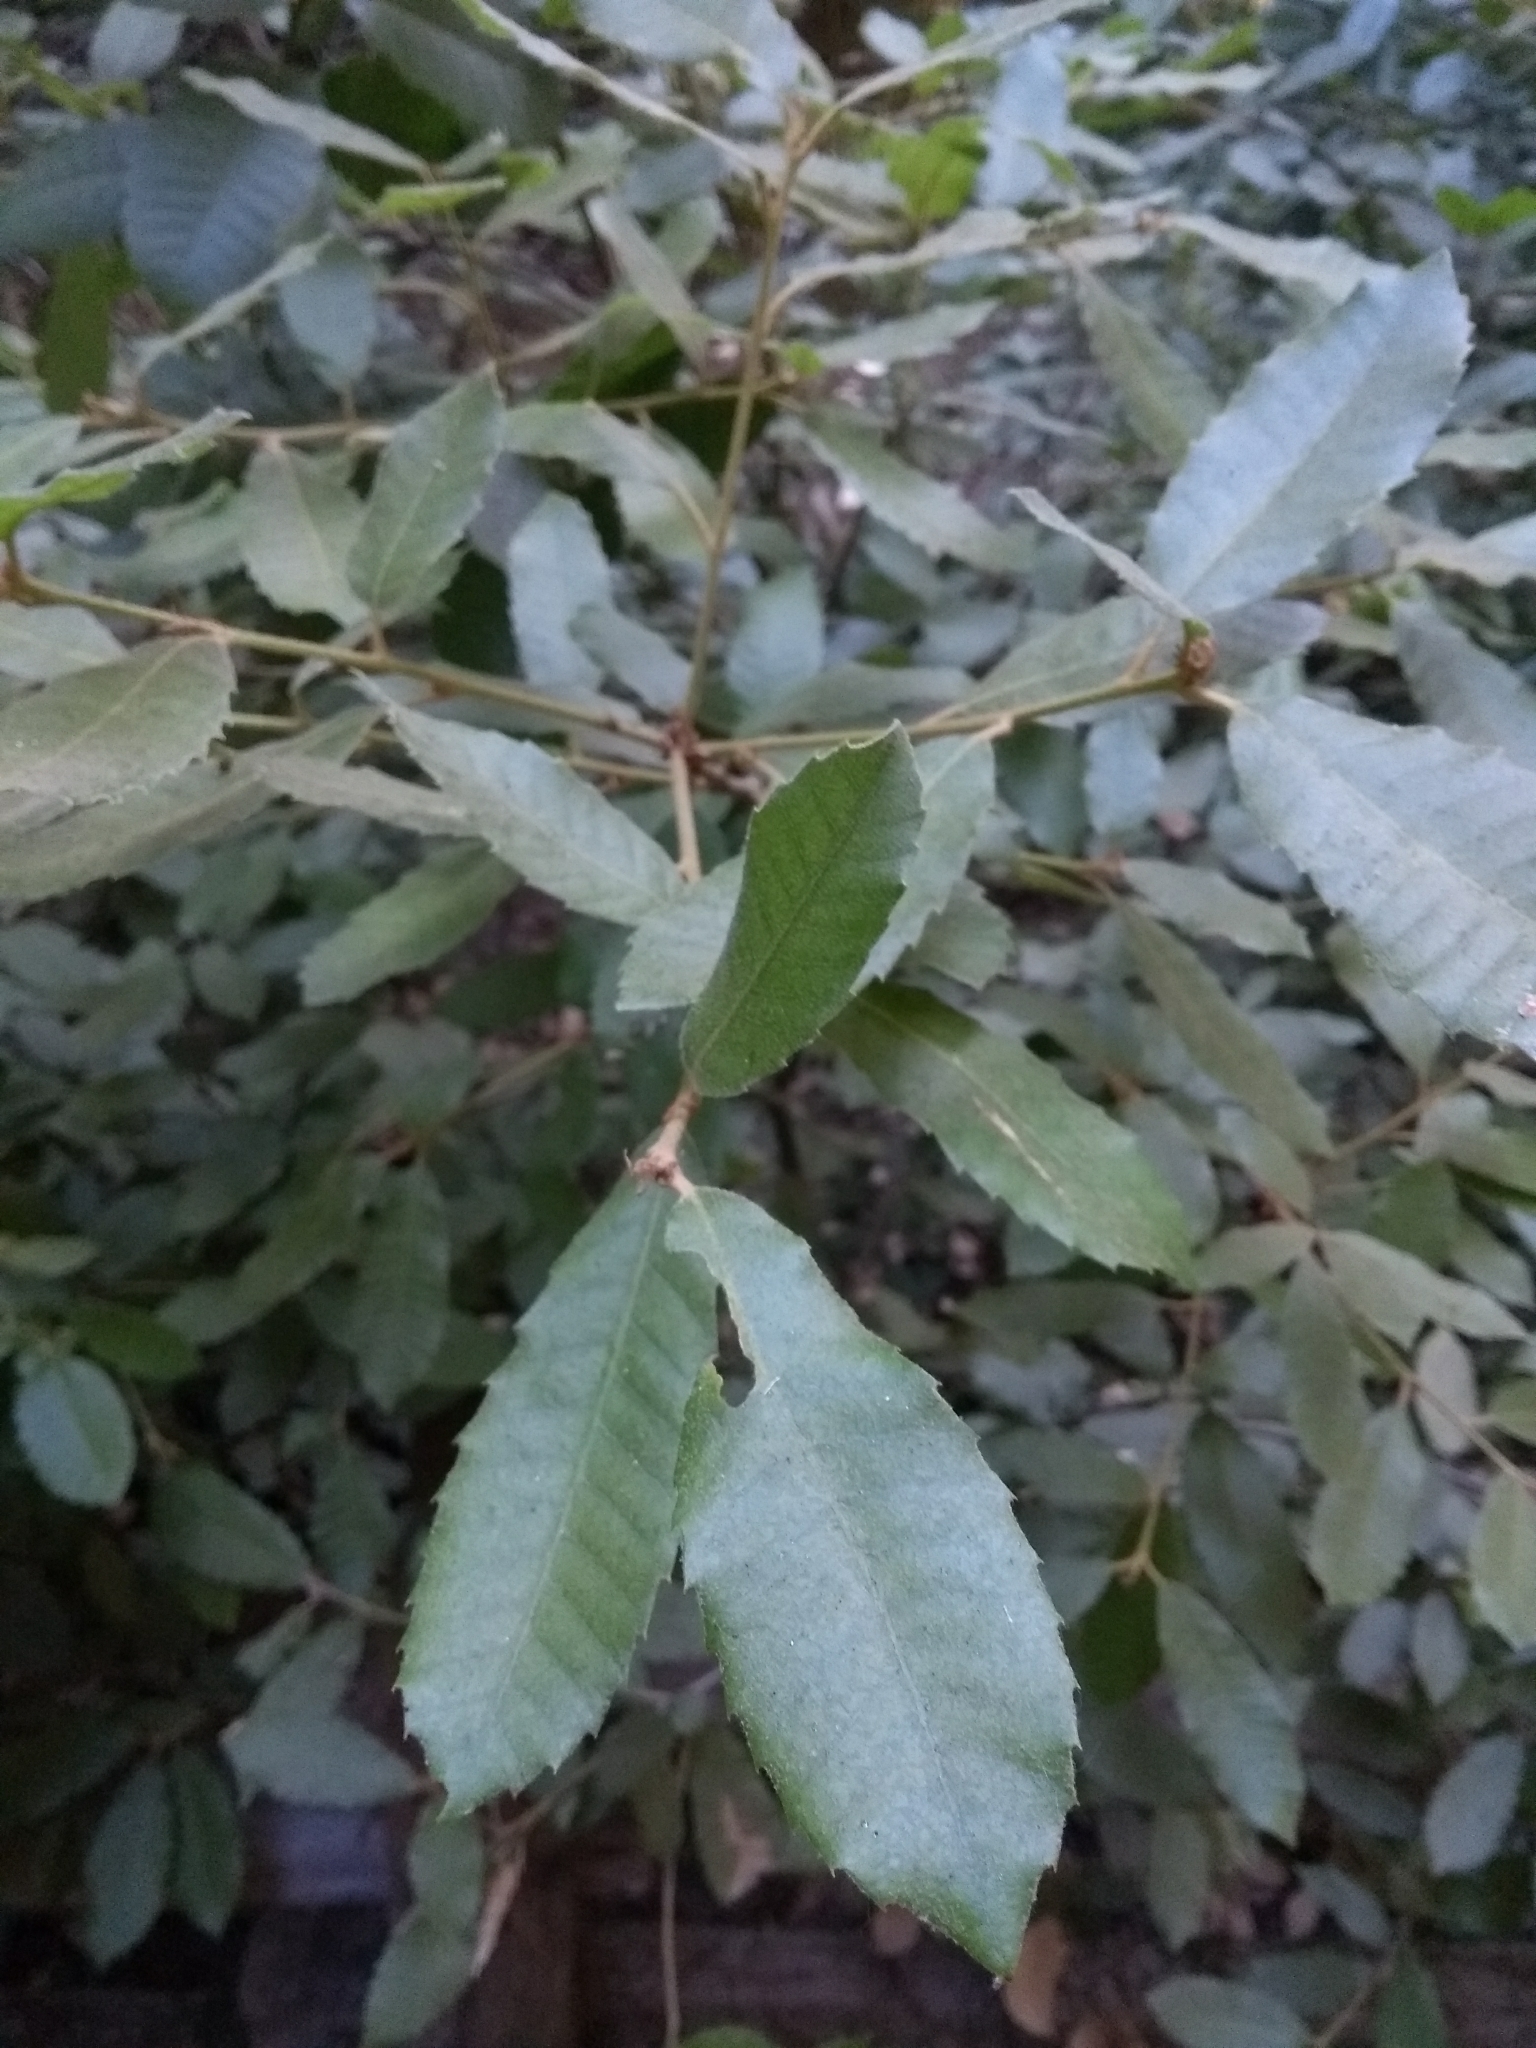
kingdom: Plantae
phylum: Tracheophyta
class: Magnoliopsida
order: Fagales
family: Fagaceae
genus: Notholithocarpus
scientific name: Notholithocarpus densiflorus
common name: Tan bark oak
